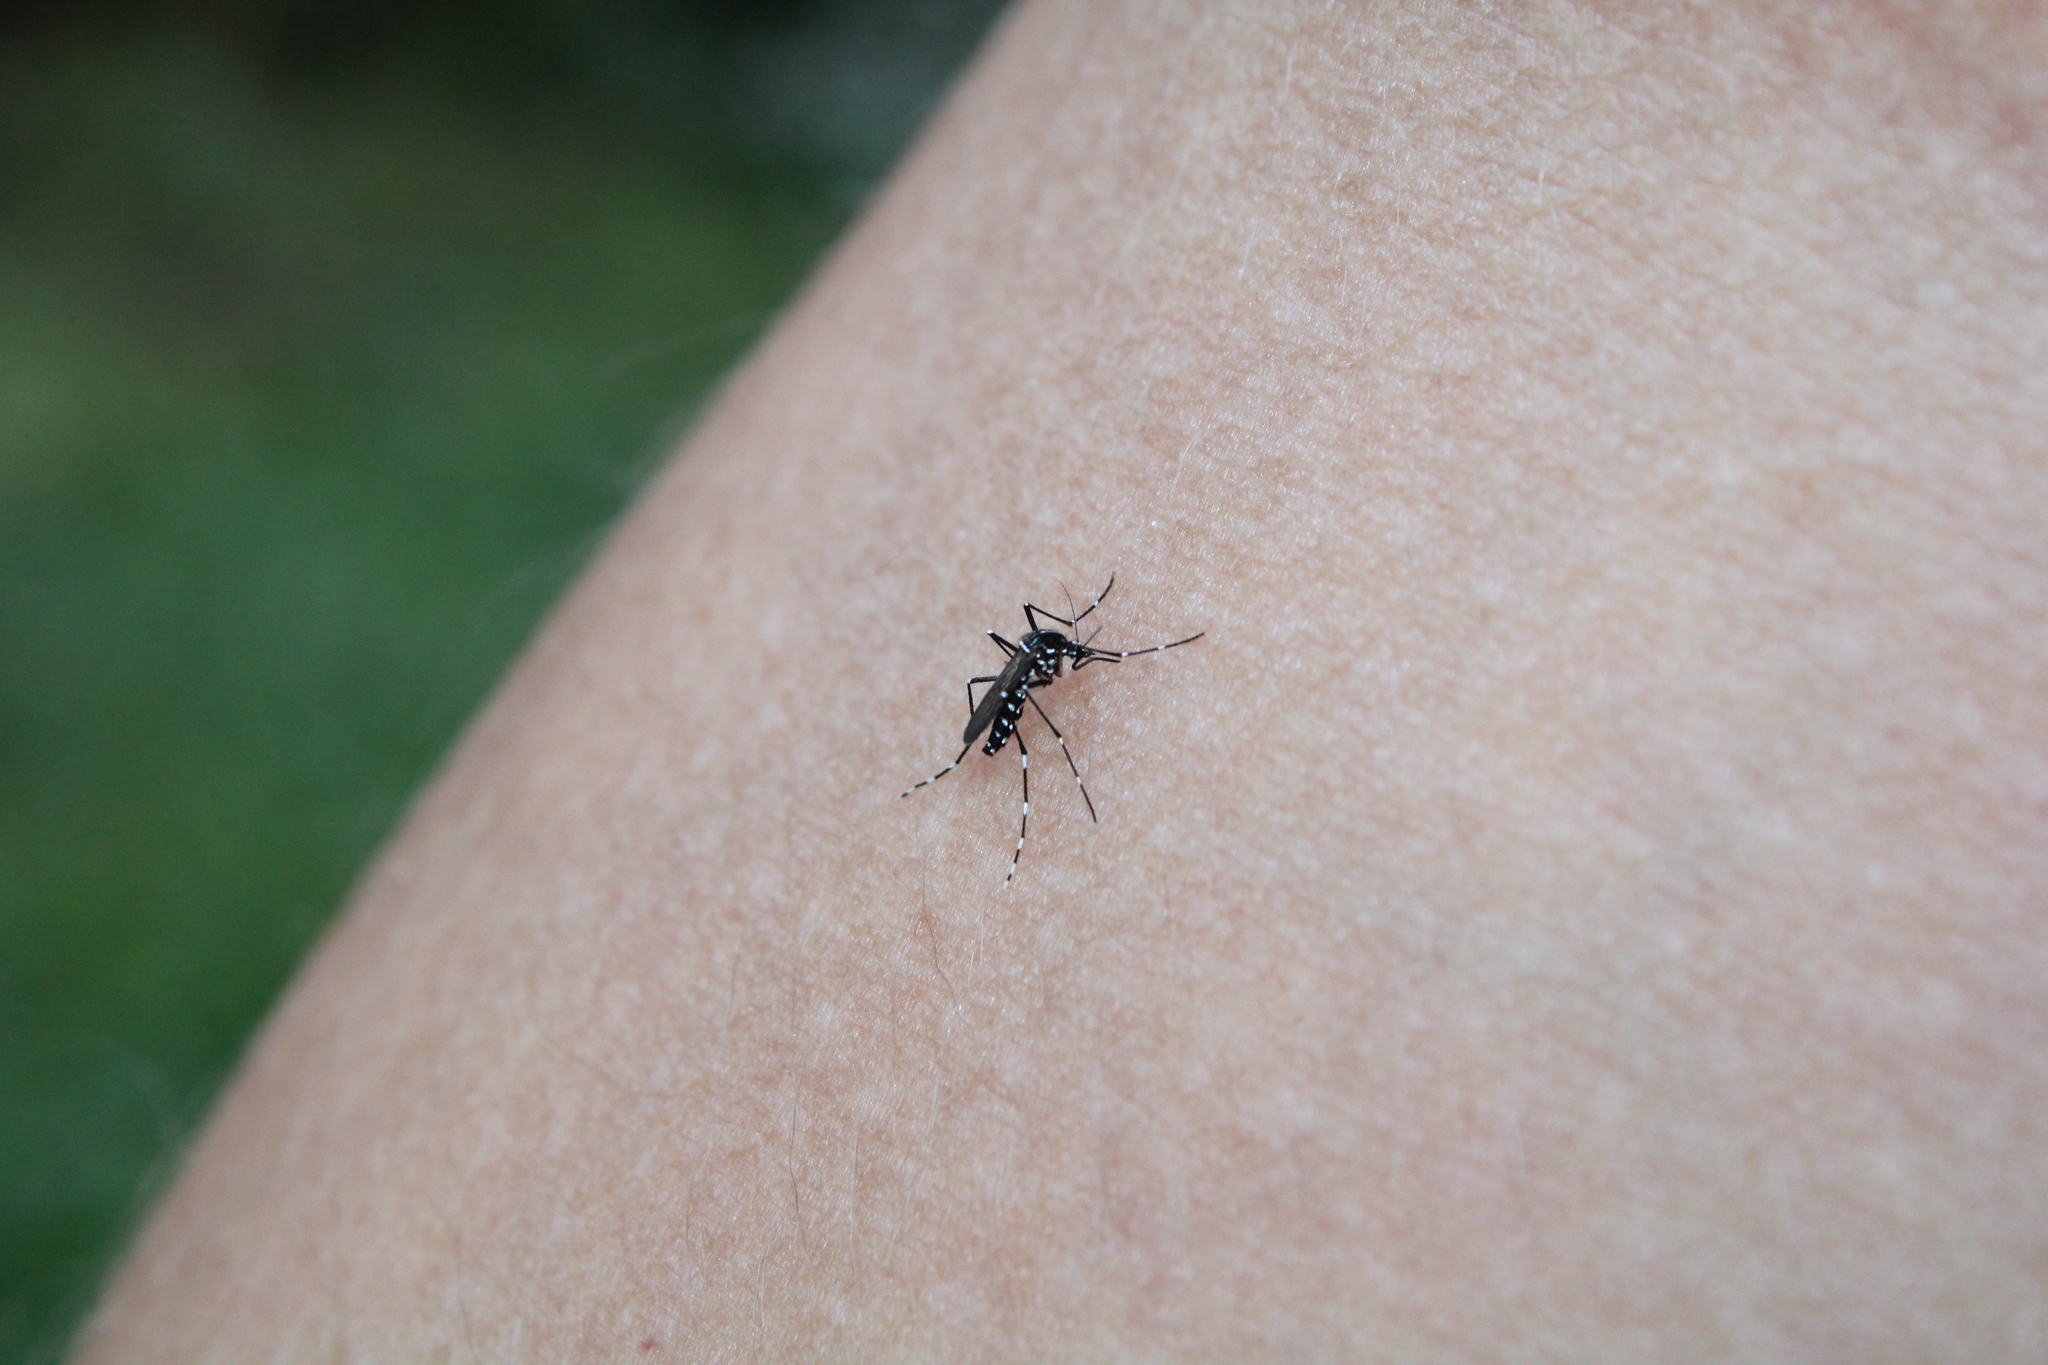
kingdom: Animalia
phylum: Arthropoda
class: Insecta
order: Diptera
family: Culicidae
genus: Aedes
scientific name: Aedes albopictus
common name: Tiger mosquito
